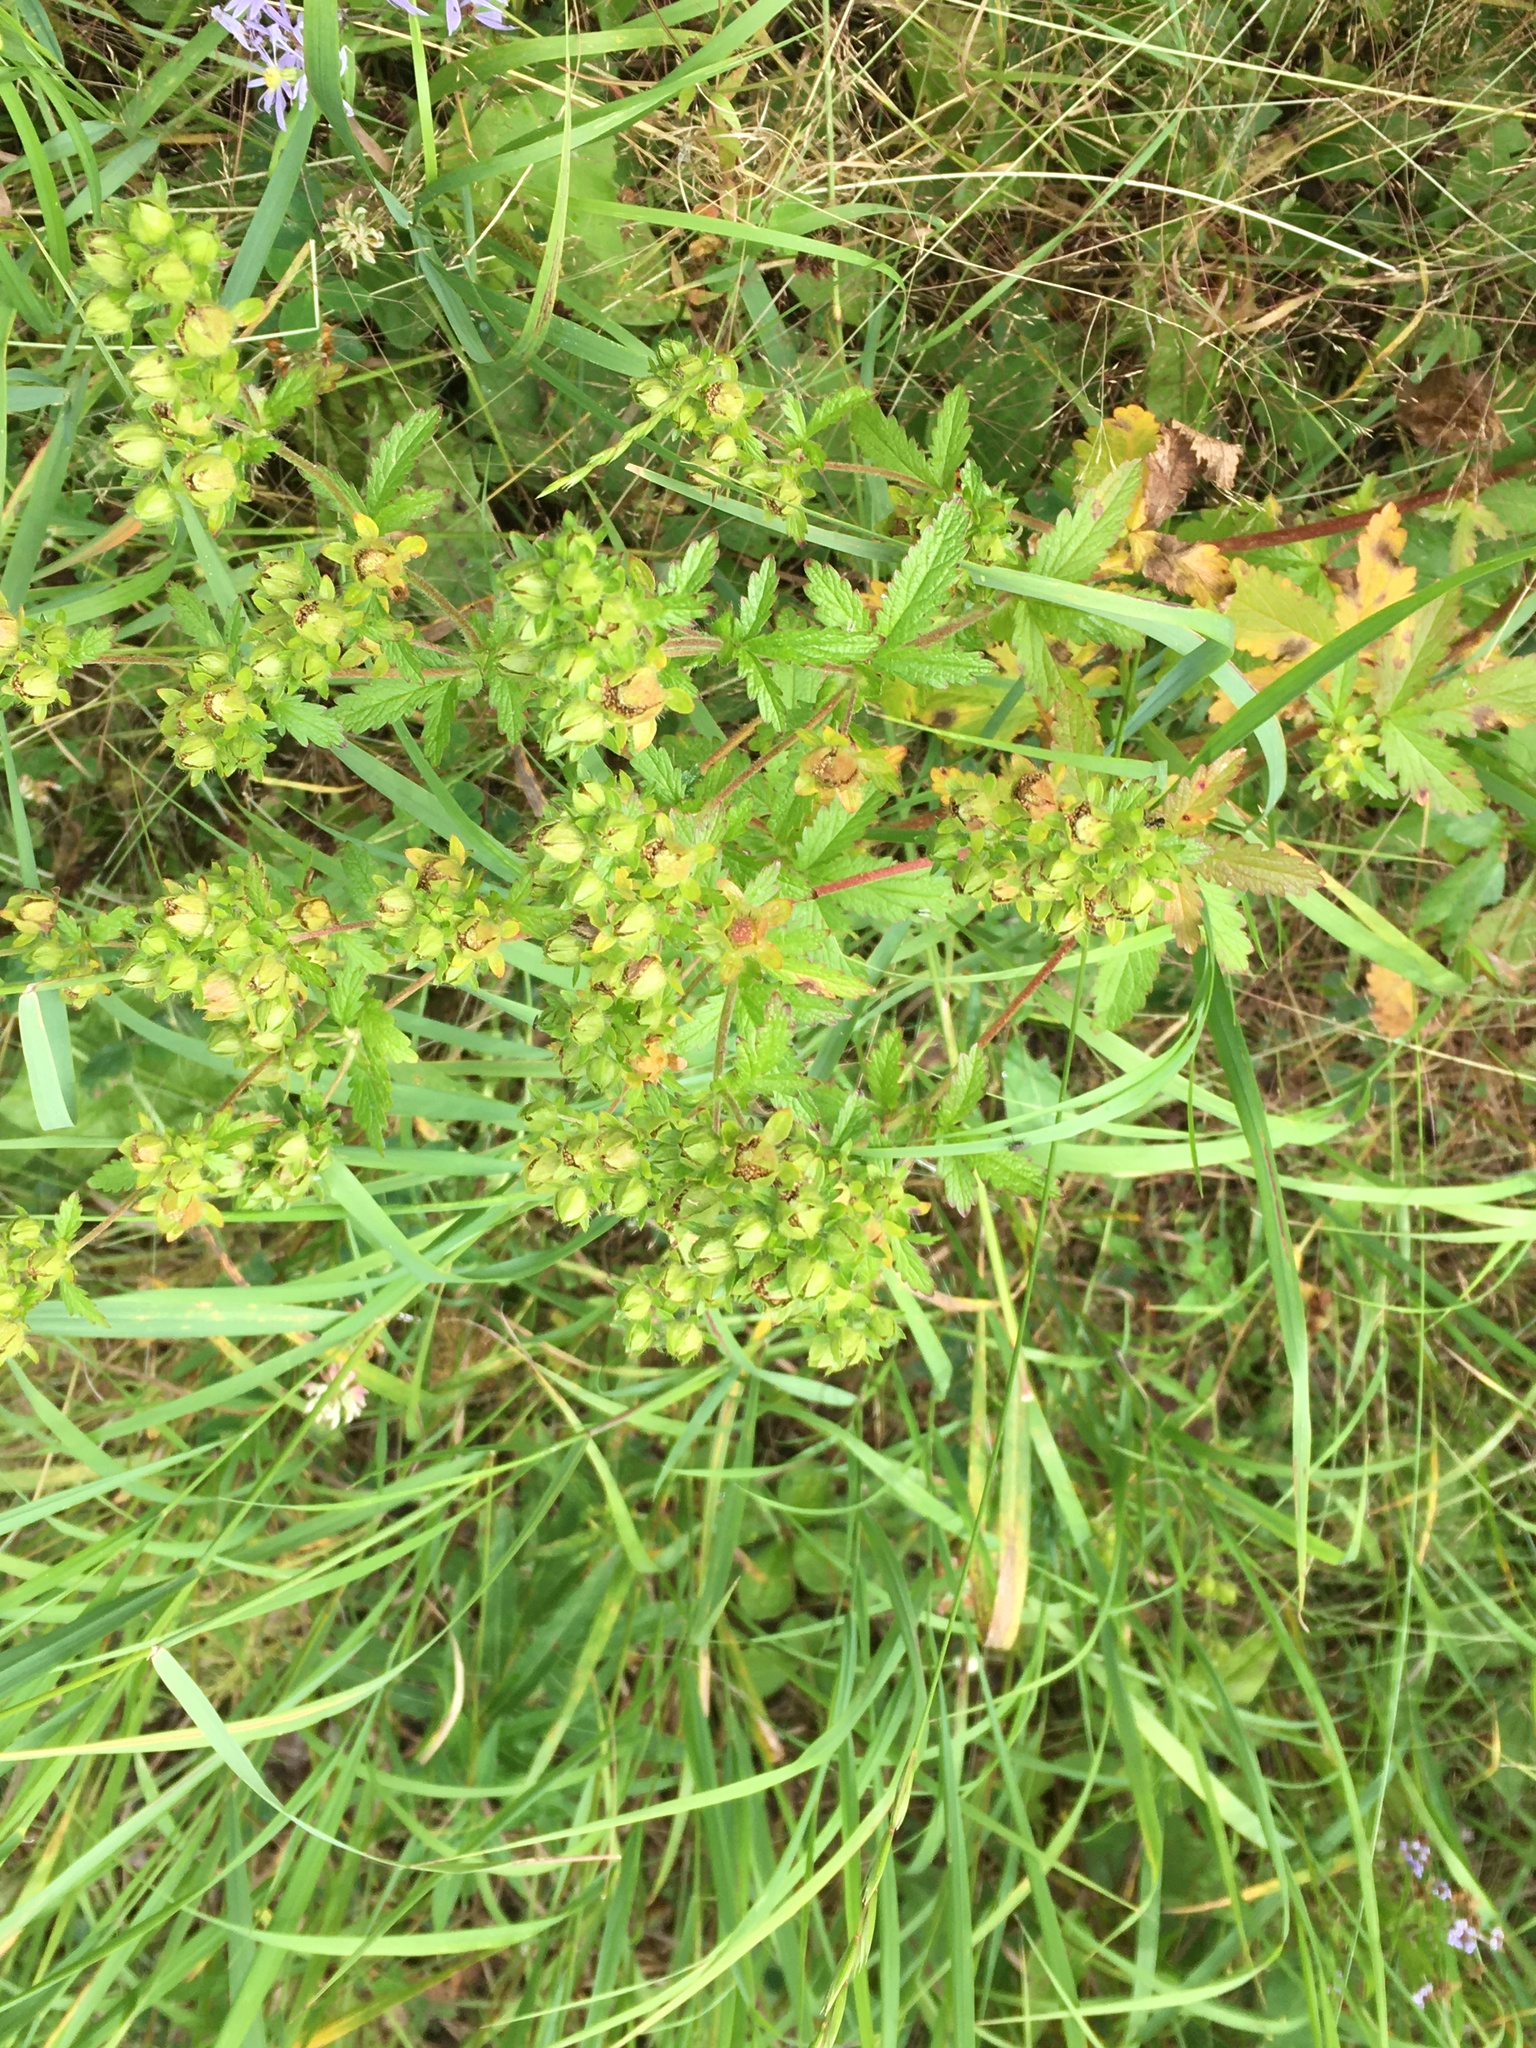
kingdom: Plantae
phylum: Tracheophyta
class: Magnoliopsida
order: Rosales
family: Rosaceae
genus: Potentilla
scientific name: Potentilla norvegica
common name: Ternate-leaved cinquefoil
